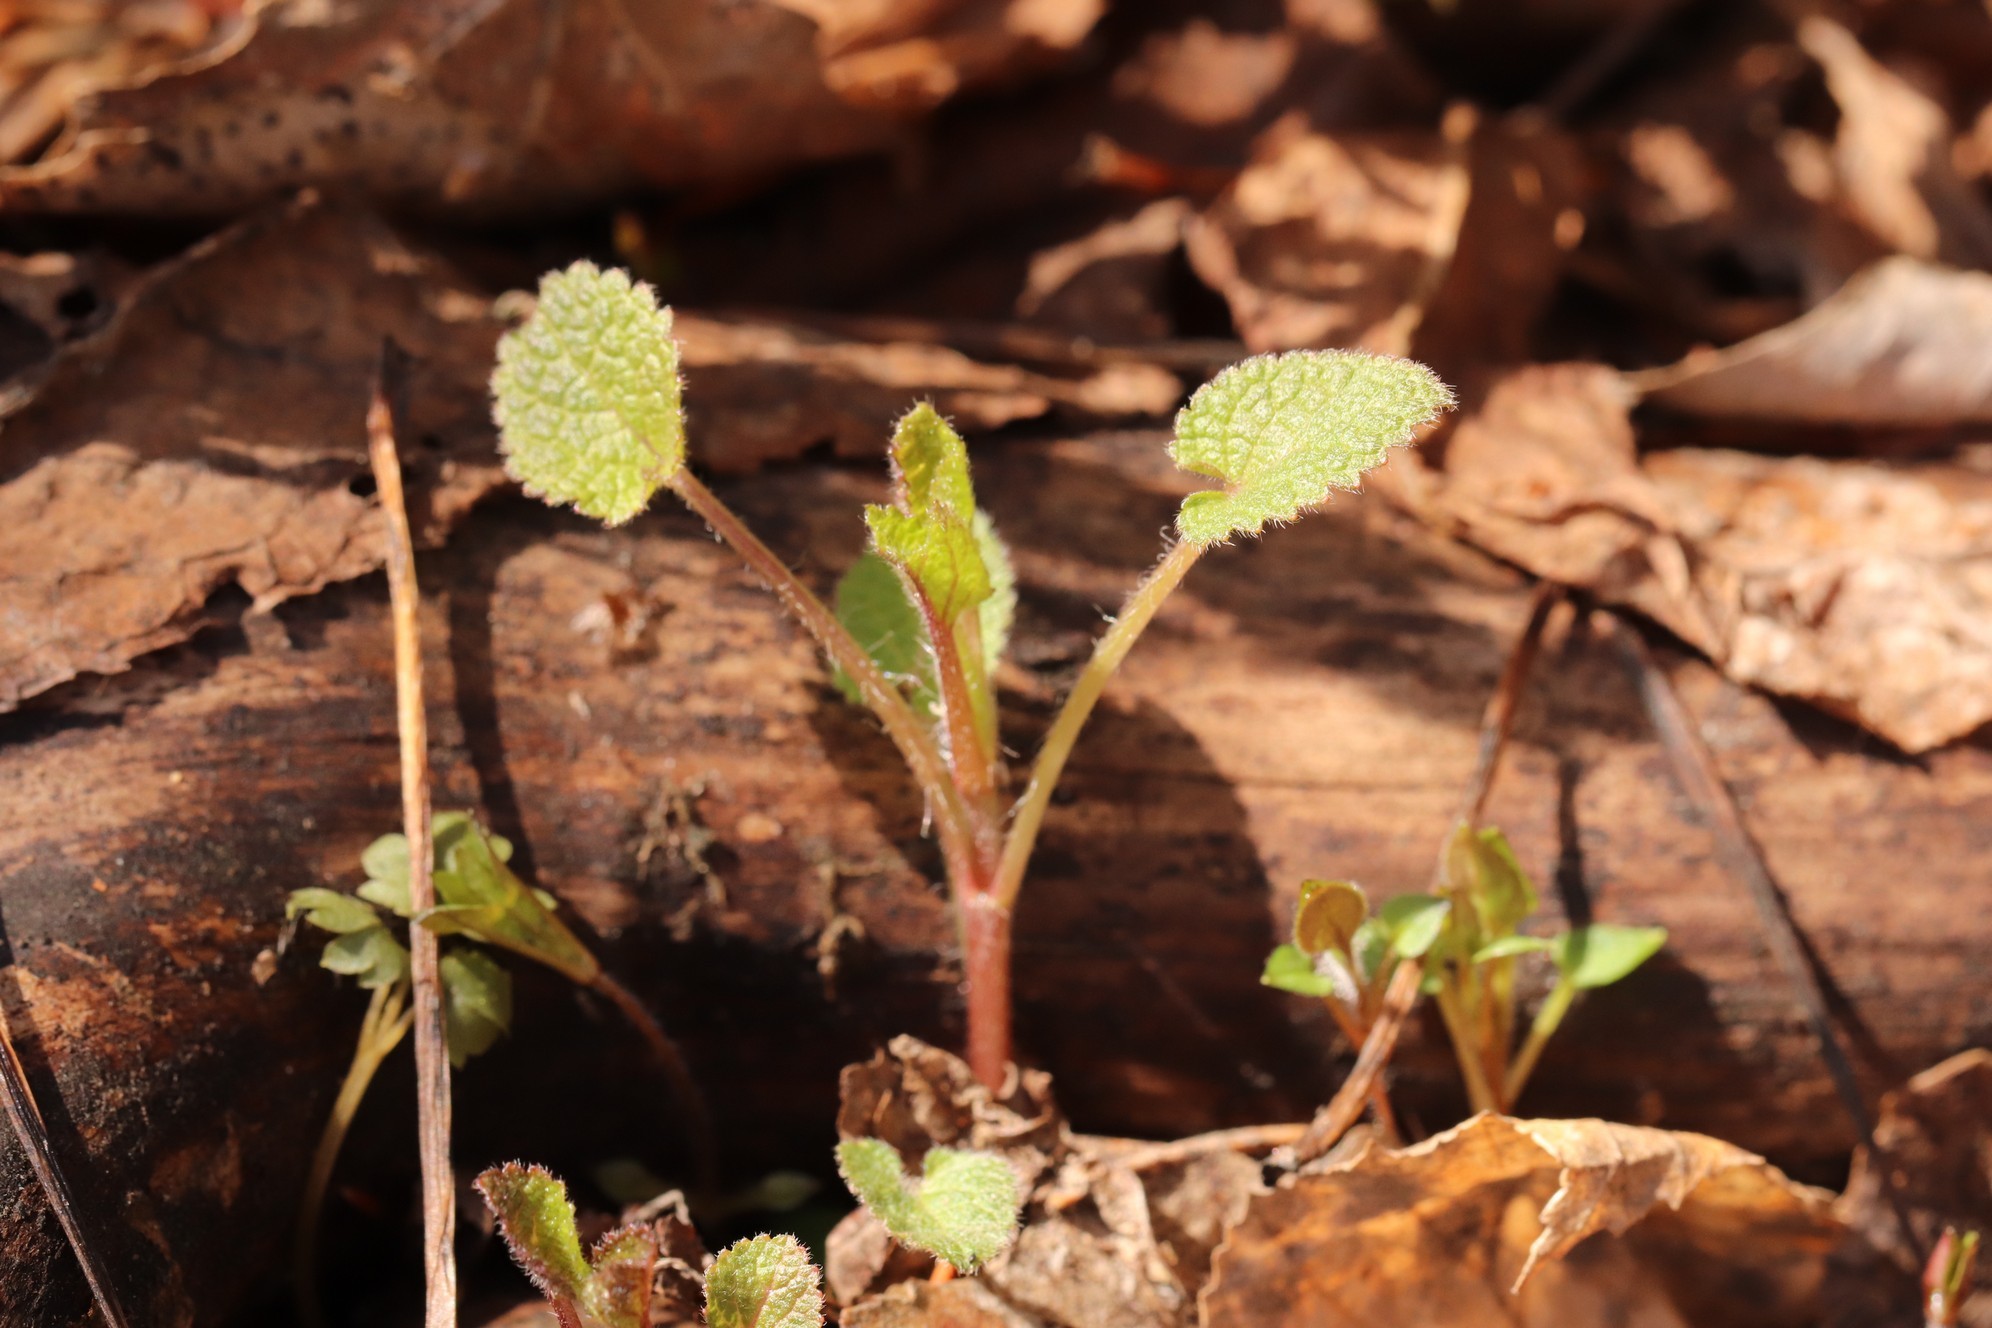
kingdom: Plantae
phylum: Tracheophyta
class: Magnoliopsida
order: Lamiales
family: Lamiaceae
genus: Lamium
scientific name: Lamium album
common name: White dead-nettle
